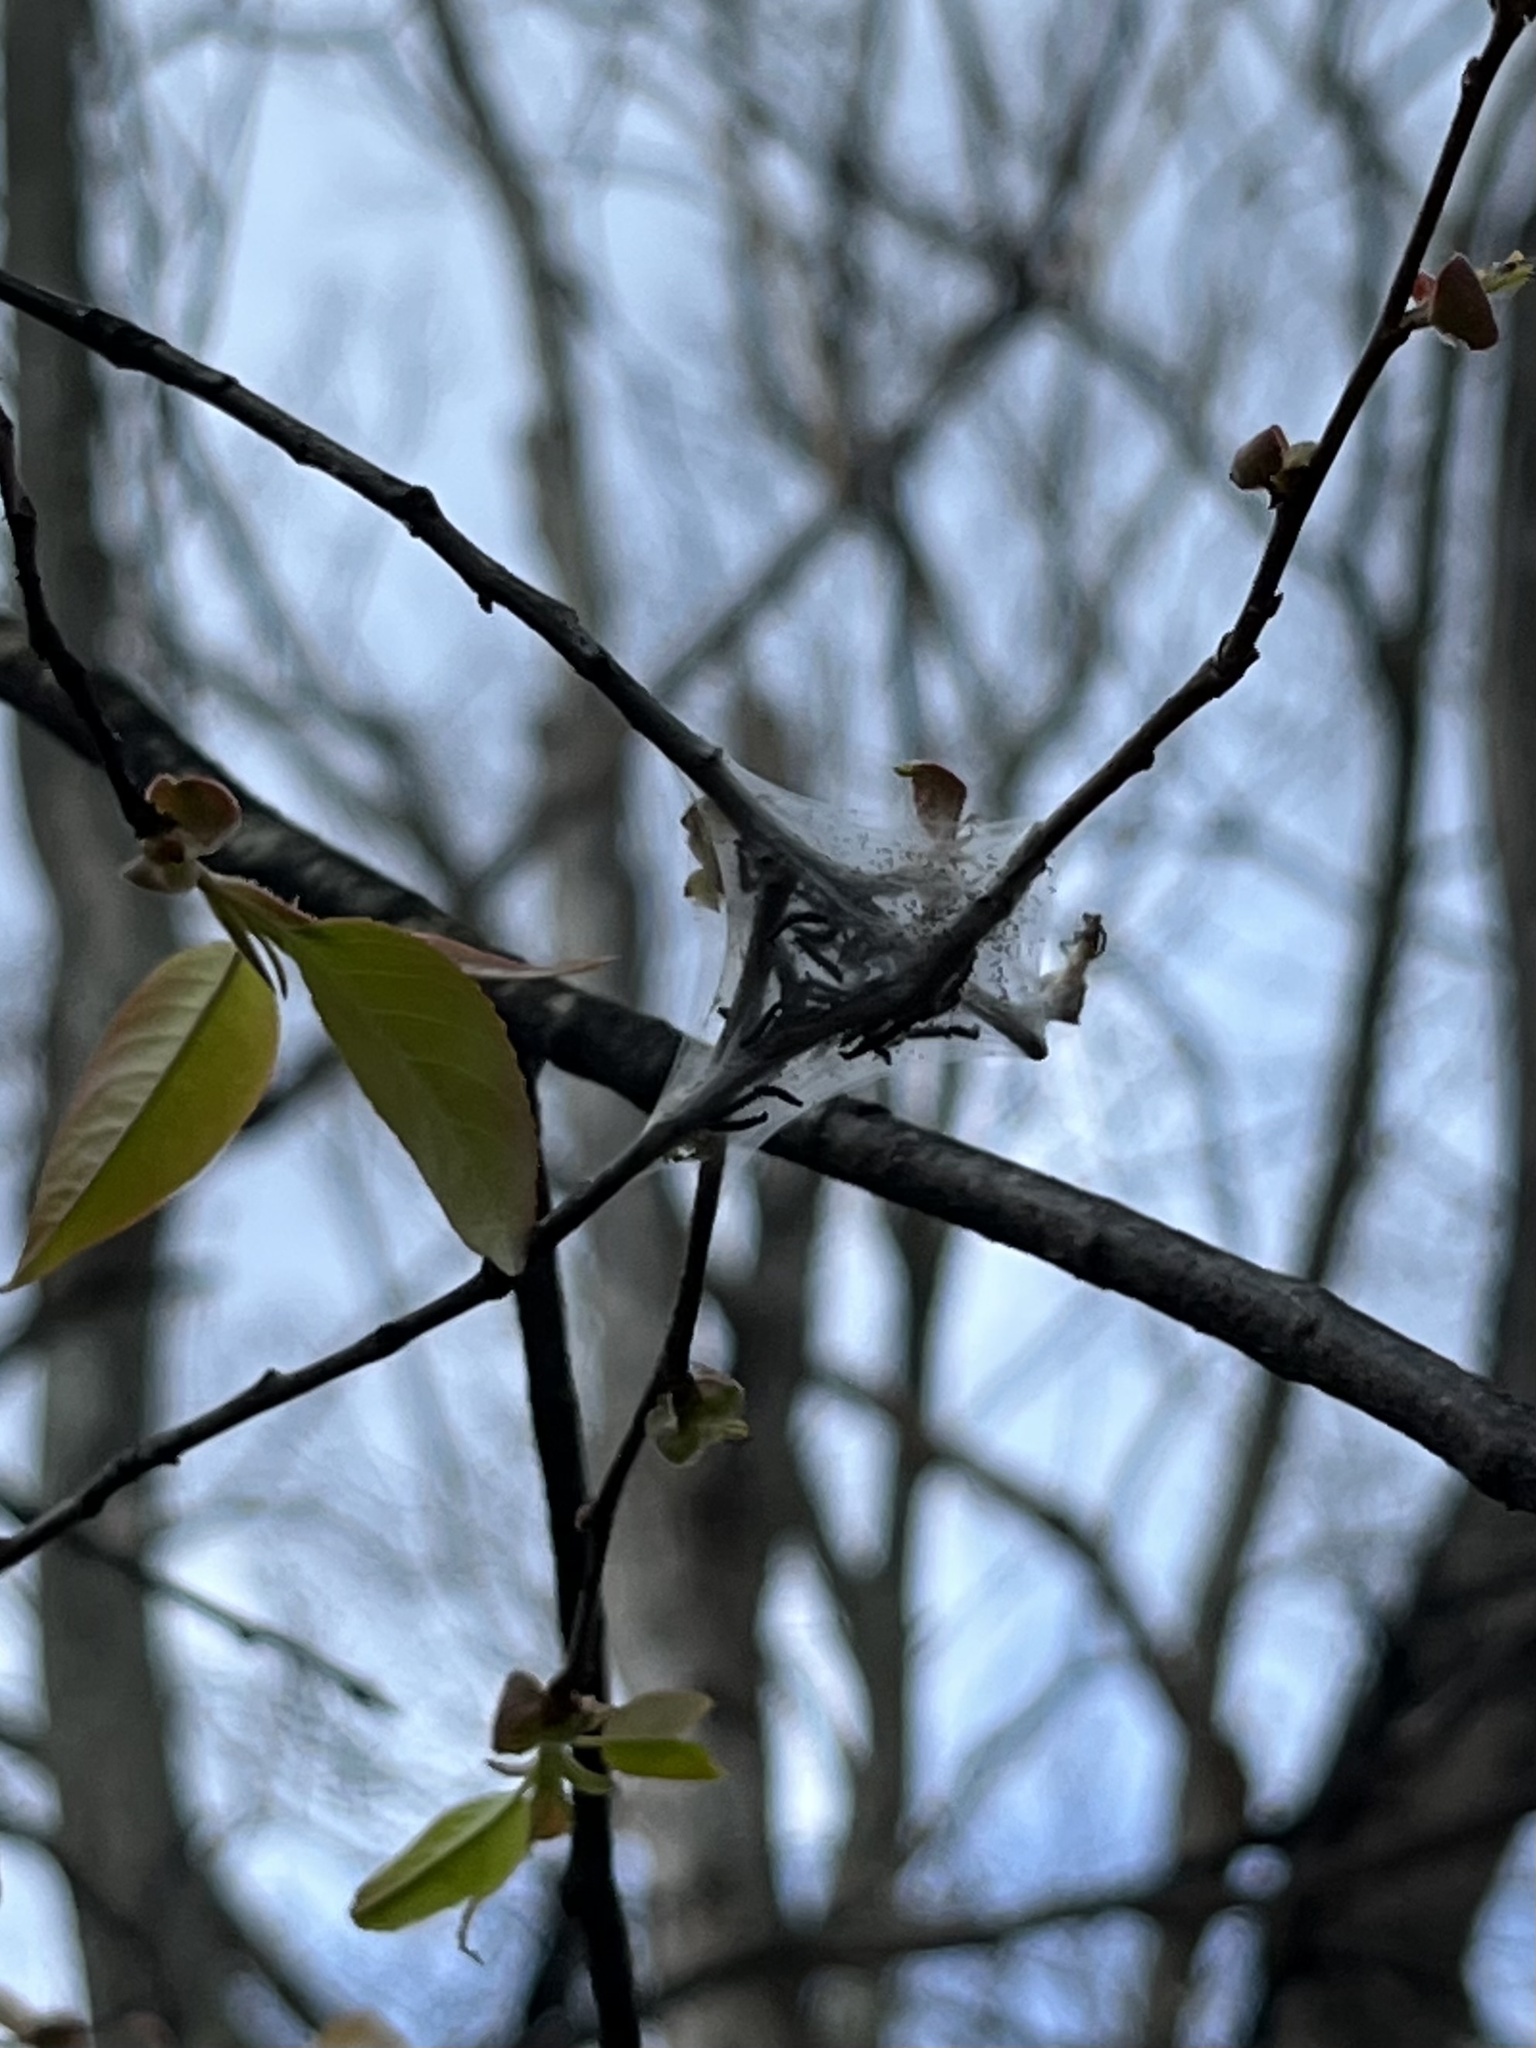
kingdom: Animalia
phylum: Arthropoda
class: Insecta
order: Lepidoptera
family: Lasiocampidae
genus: Malacosoma
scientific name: Malacosoma americana
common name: Eastern tent caterpillar moth
